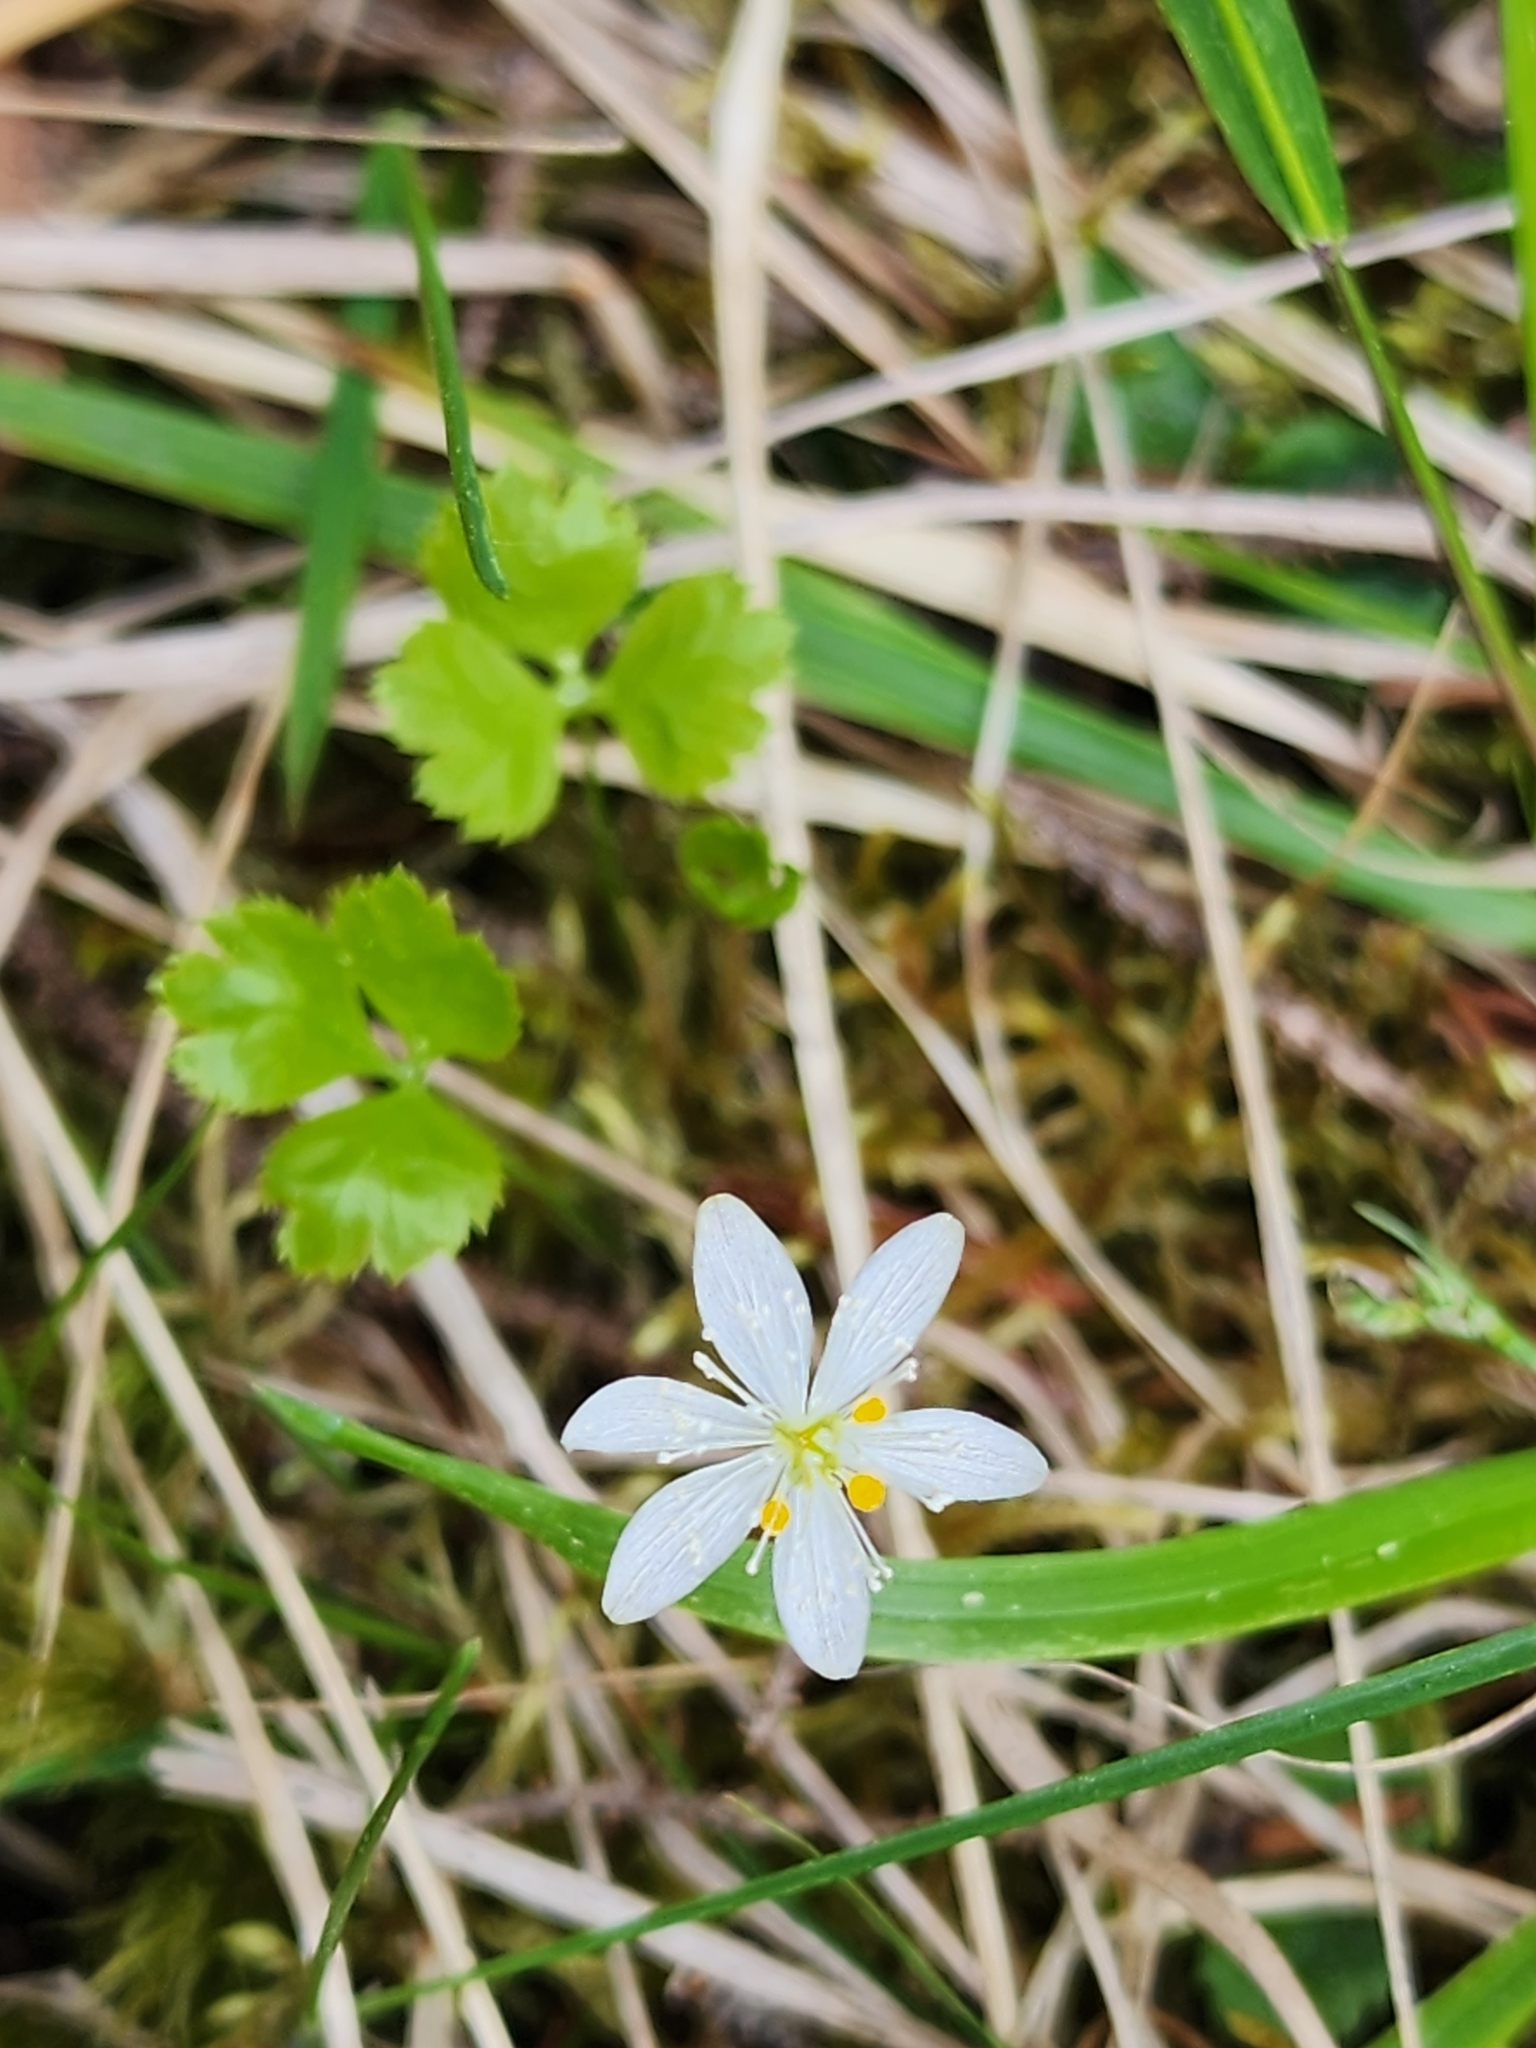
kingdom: Plantae
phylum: Tracheophyta
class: Magnoliopsida
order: Ranunculales
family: Ranunculaceae
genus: Coptis
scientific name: Coptis trifolia
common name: Canker-root
